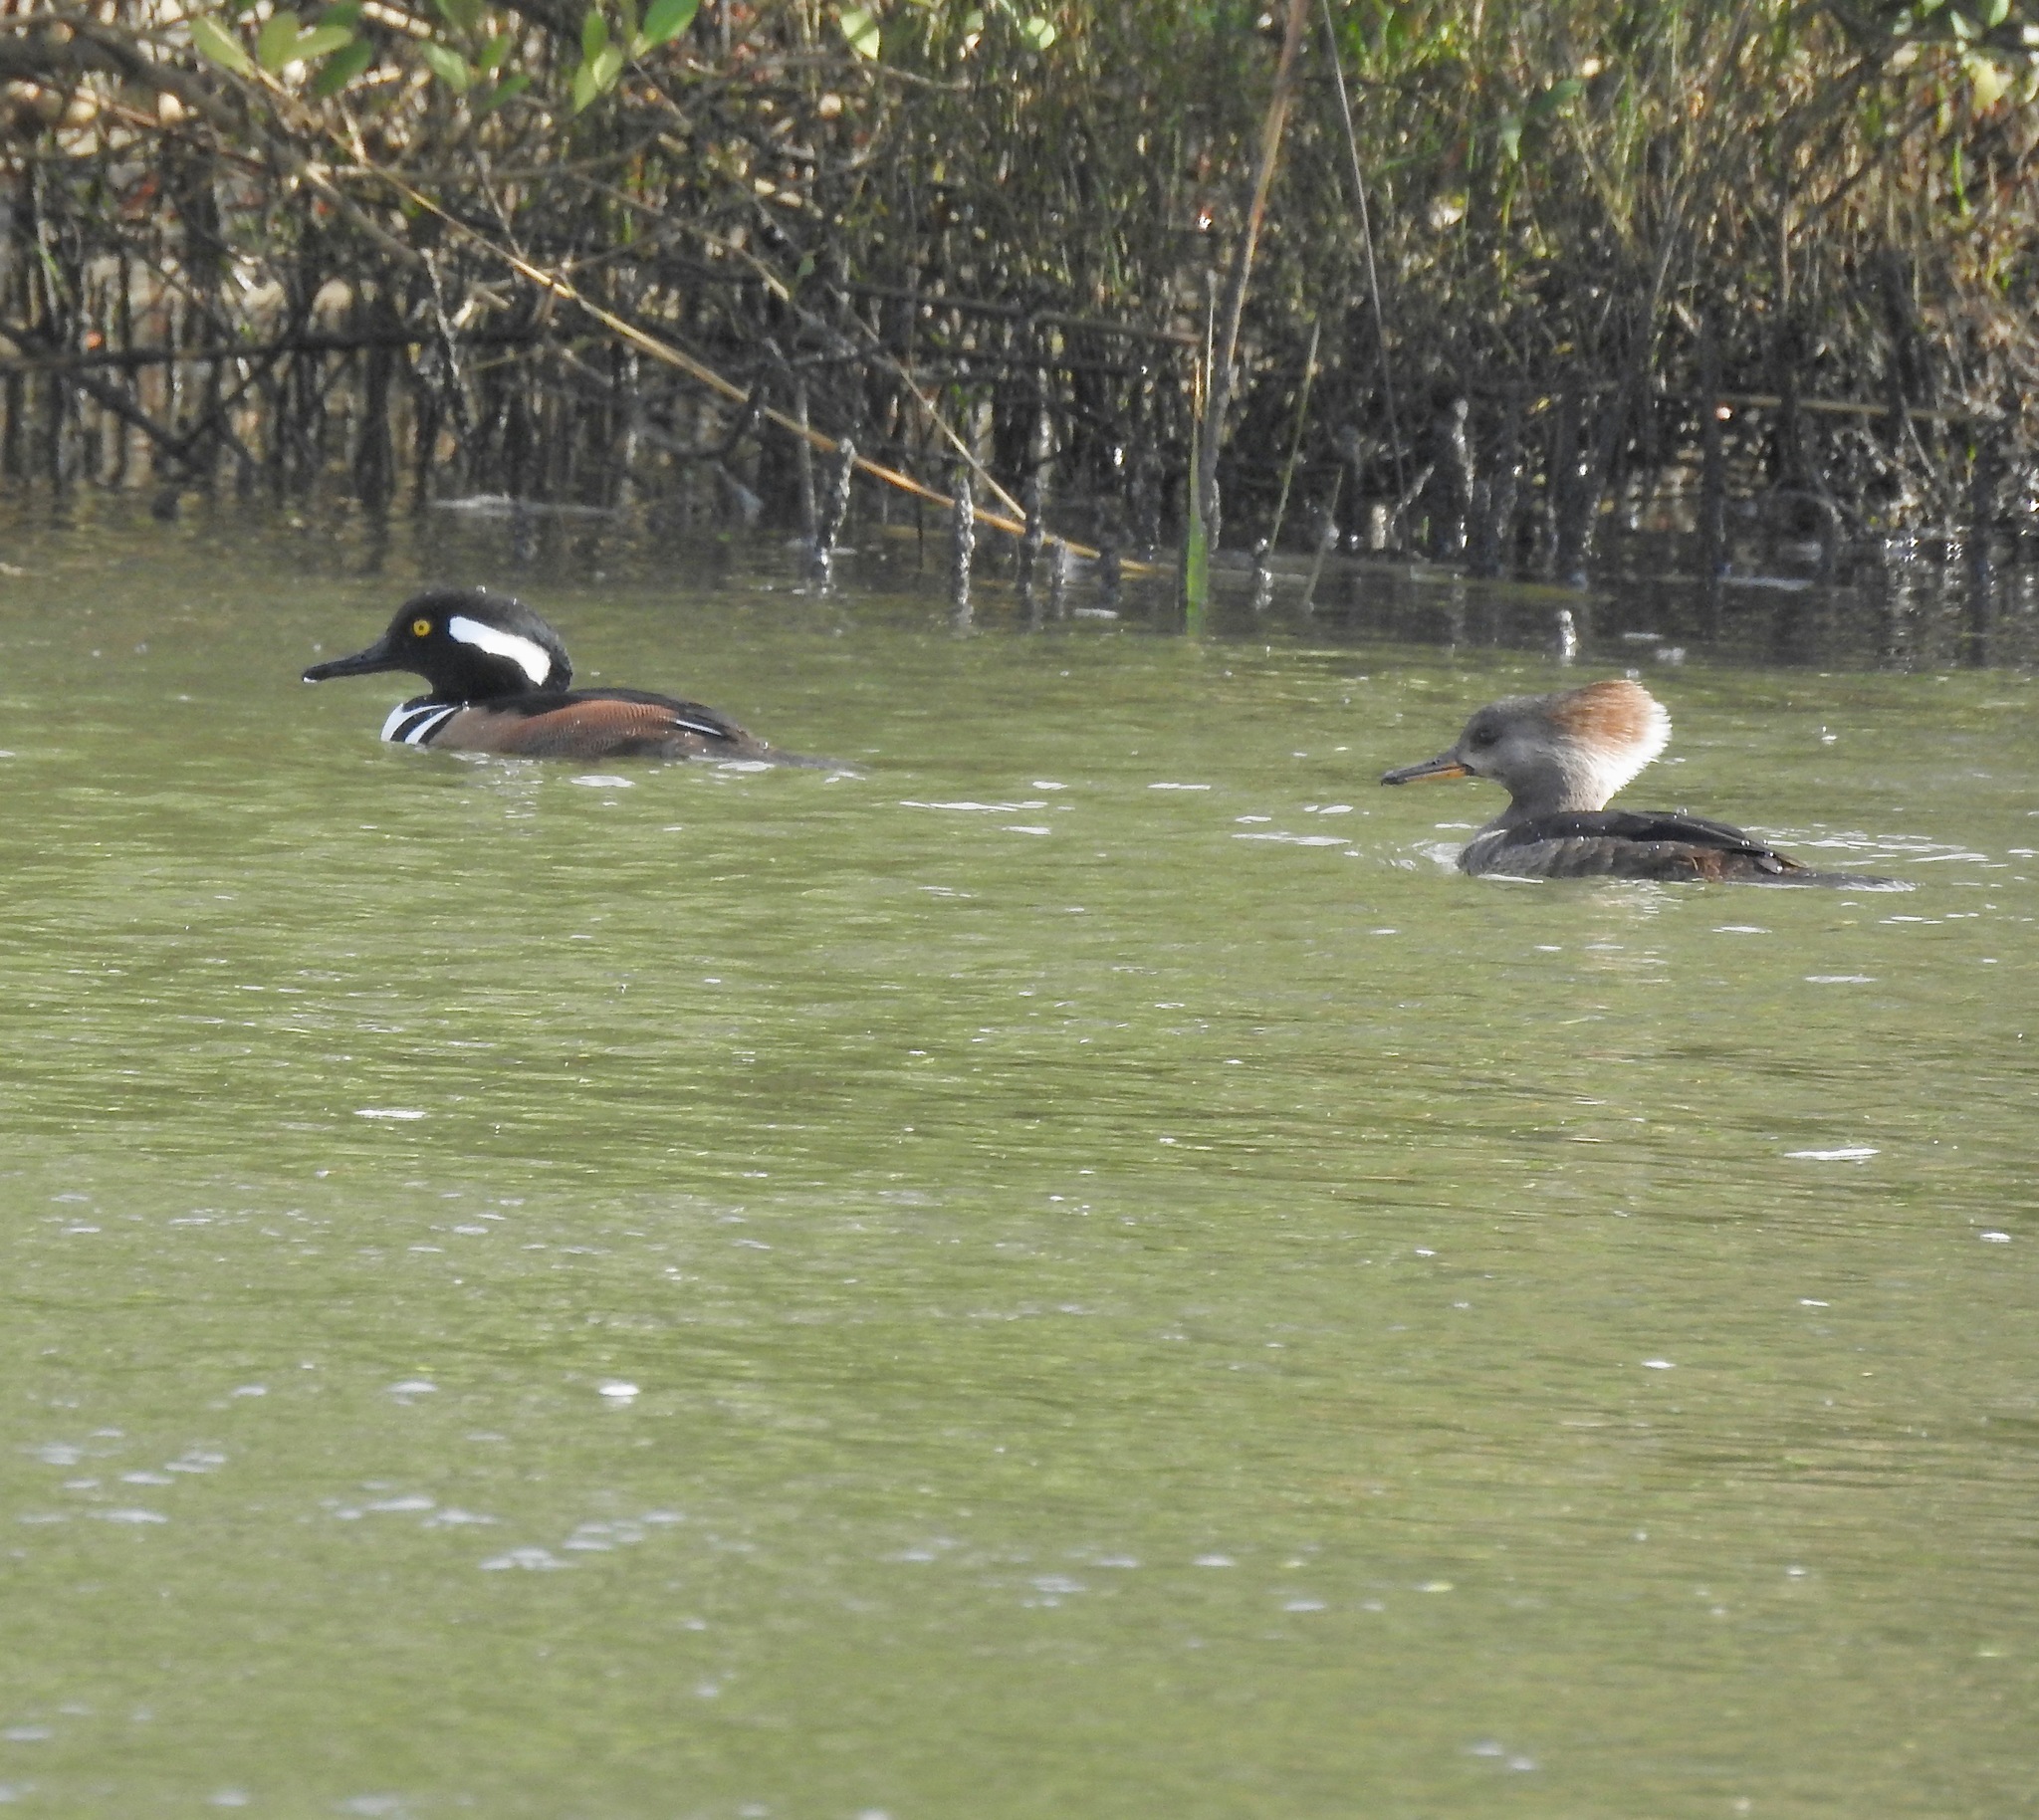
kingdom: Animalia
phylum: Chordata
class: Aves
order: Anseriformes
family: Anatidae
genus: Lophodytes
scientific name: Lophodytes cucullatus
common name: Hooded merganser
